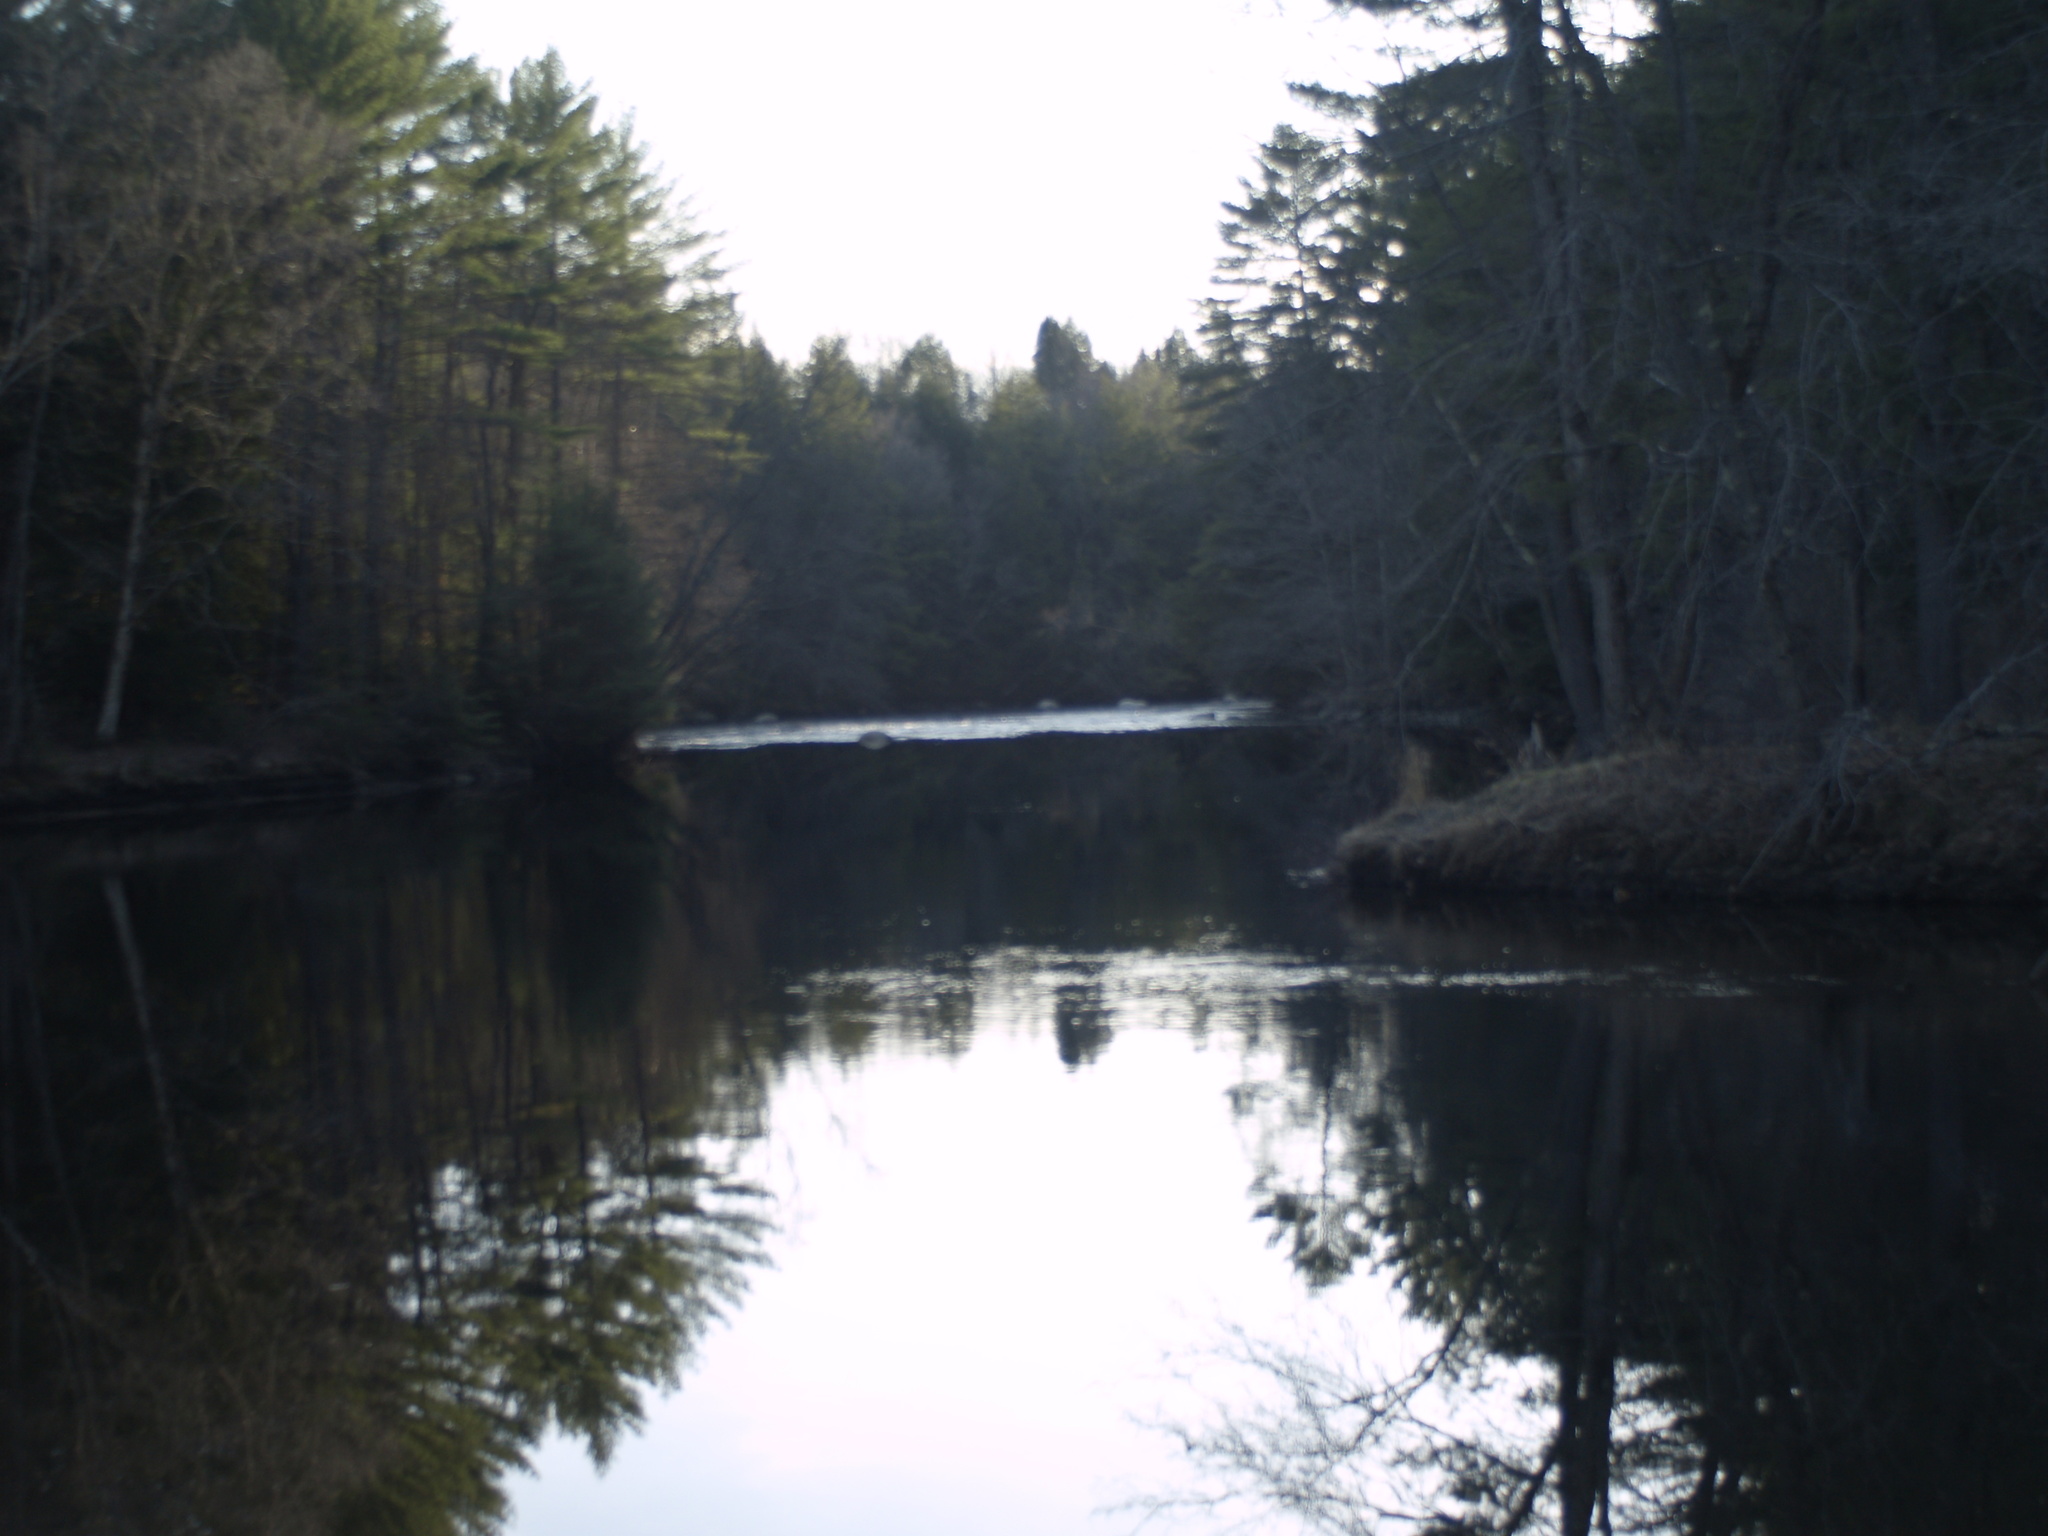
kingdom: Plantae
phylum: Tracheophyta
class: Pinopsida
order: Pinales
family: Pinaceae
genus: Pinus
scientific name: Pinus strobus
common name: Weymouth pine
